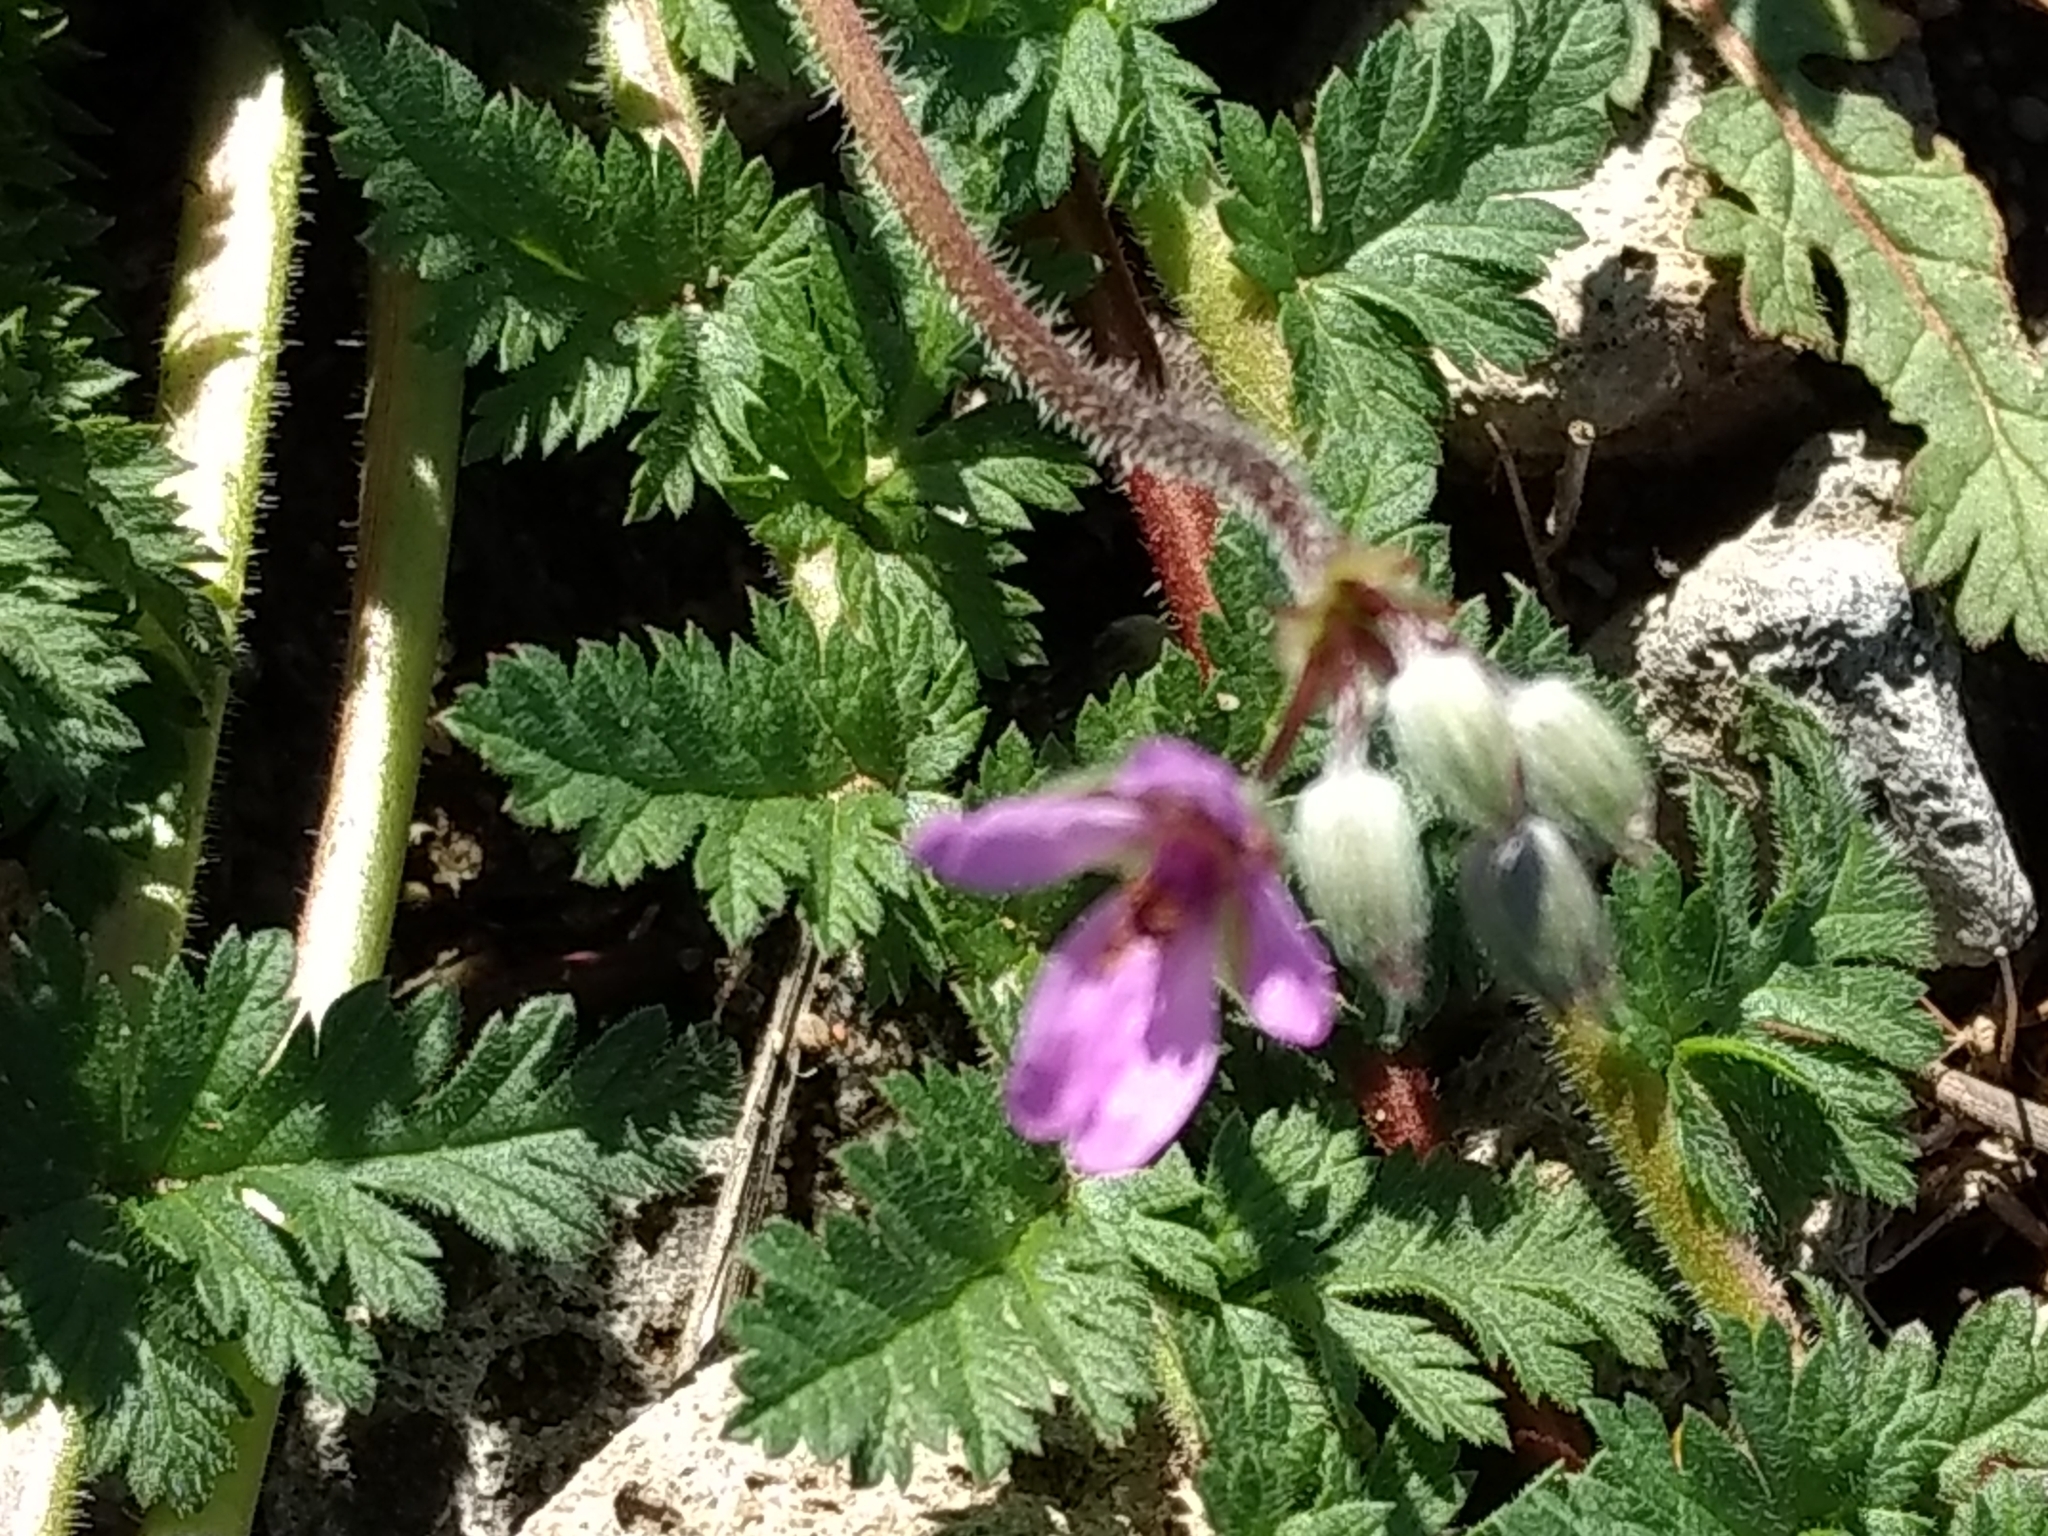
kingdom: Plantae
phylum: Tracheophyta
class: Magnoliopsida
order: Geraniales
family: Geraniaceae
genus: Erodium
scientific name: Erodium cicutarium
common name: Common stork's-bill
